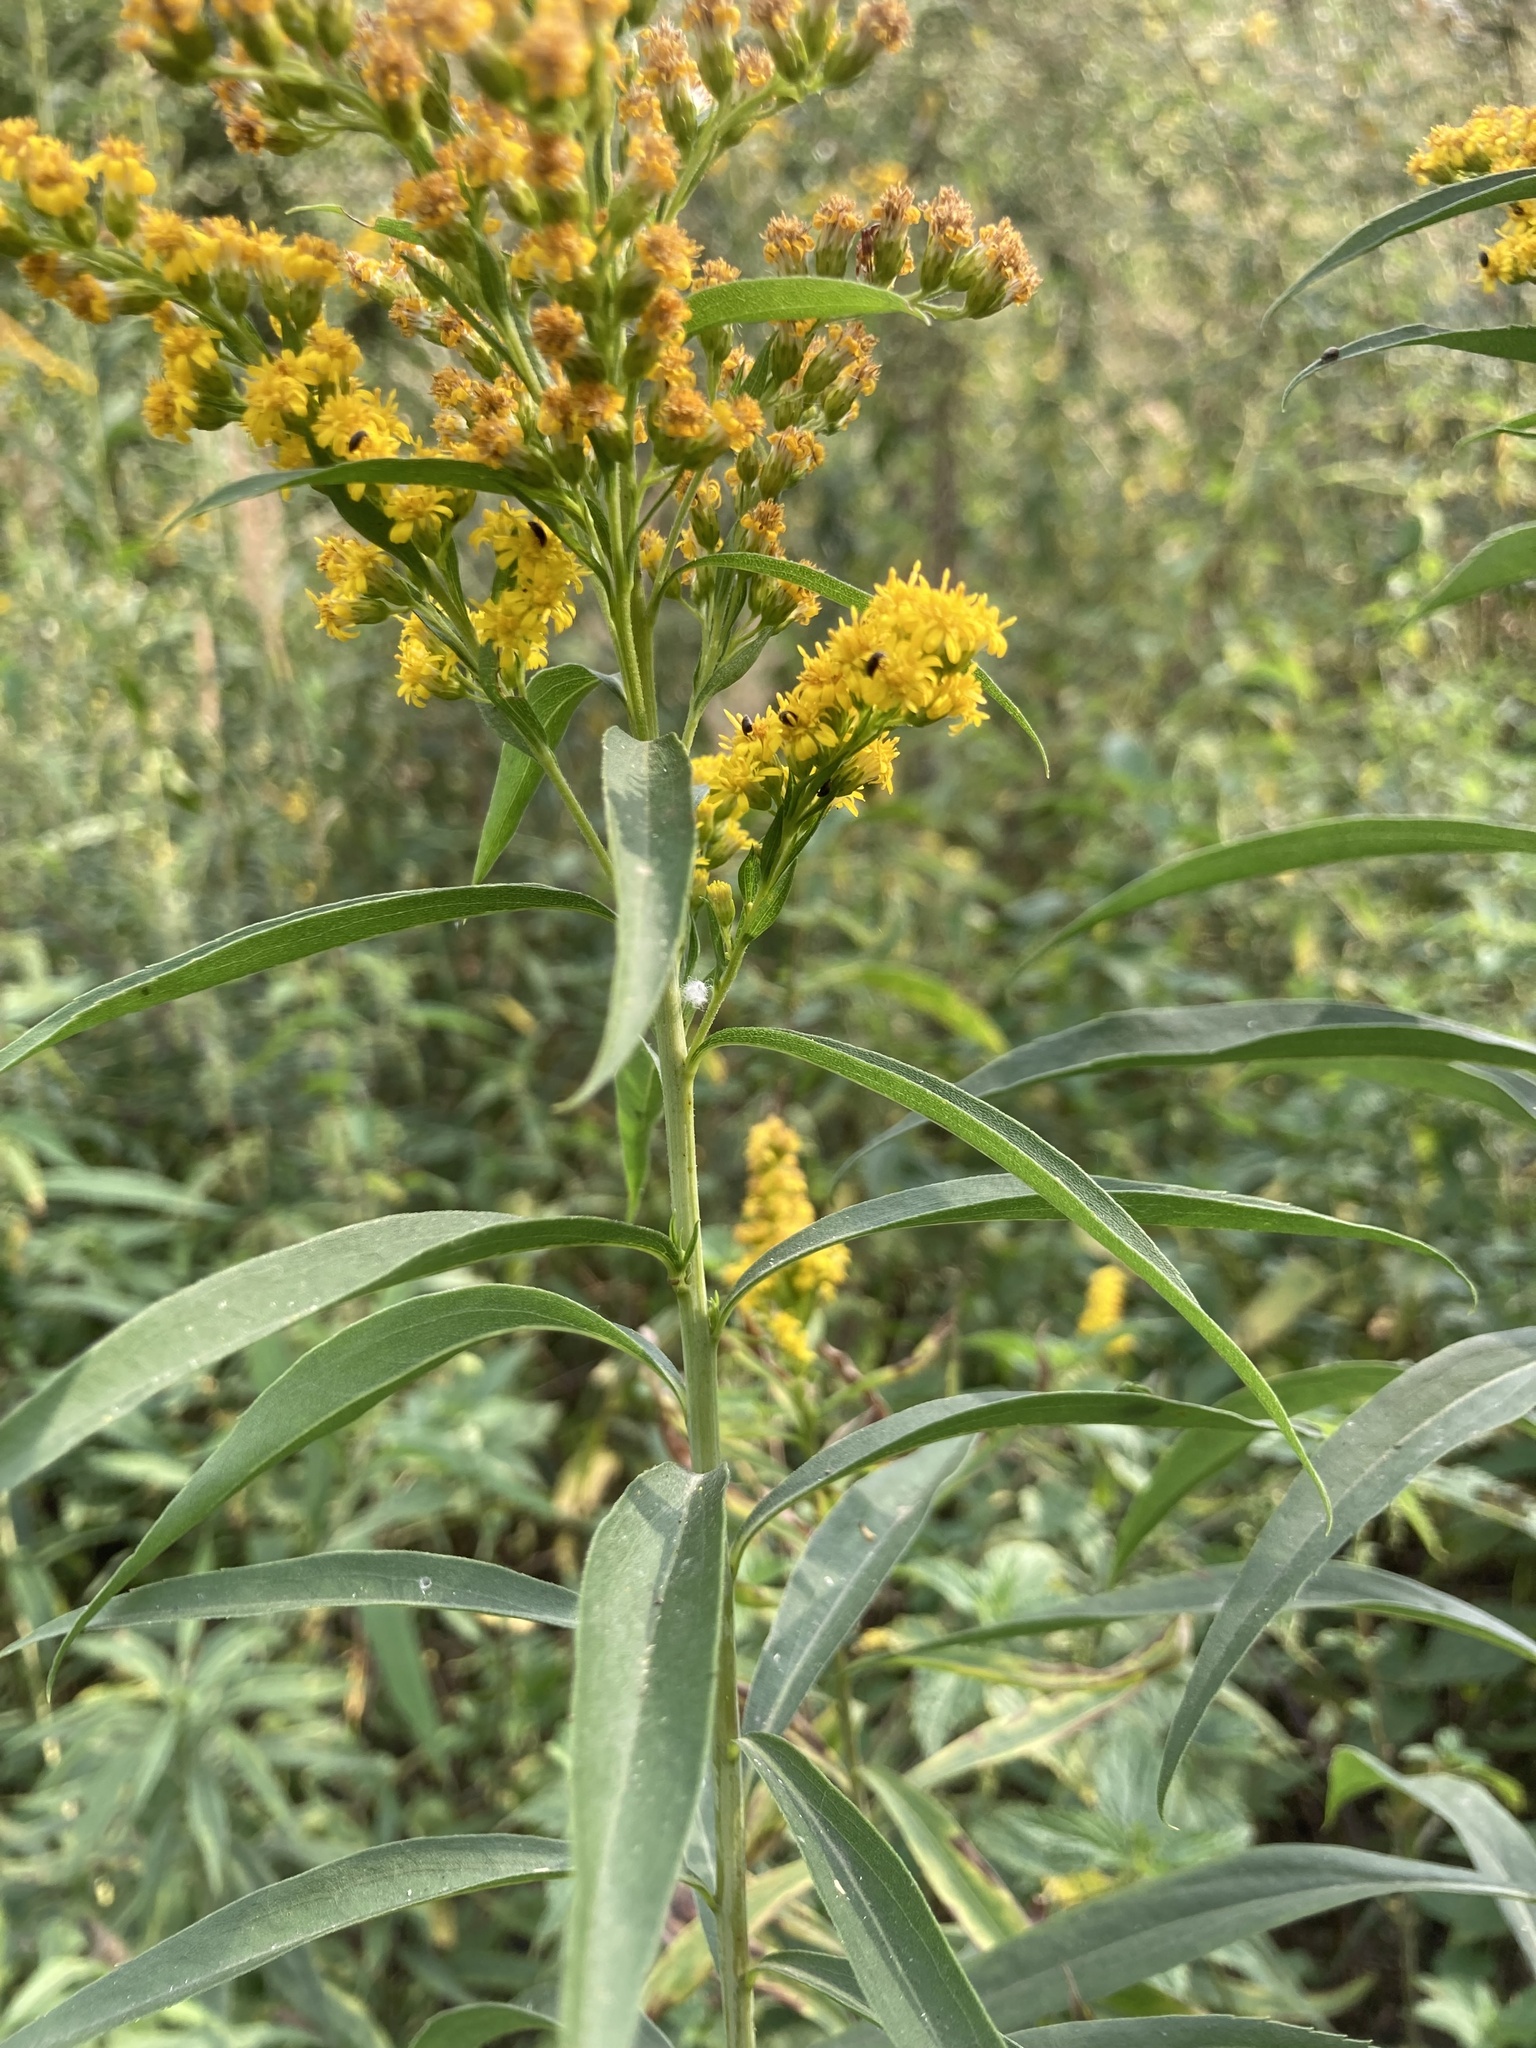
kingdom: Plantae
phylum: Tracheophyta
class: Magnoliopsida
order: Asterales
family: Asteraceae
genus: Solidago
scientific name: Solidago gigantea
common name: Giant goldenrod
